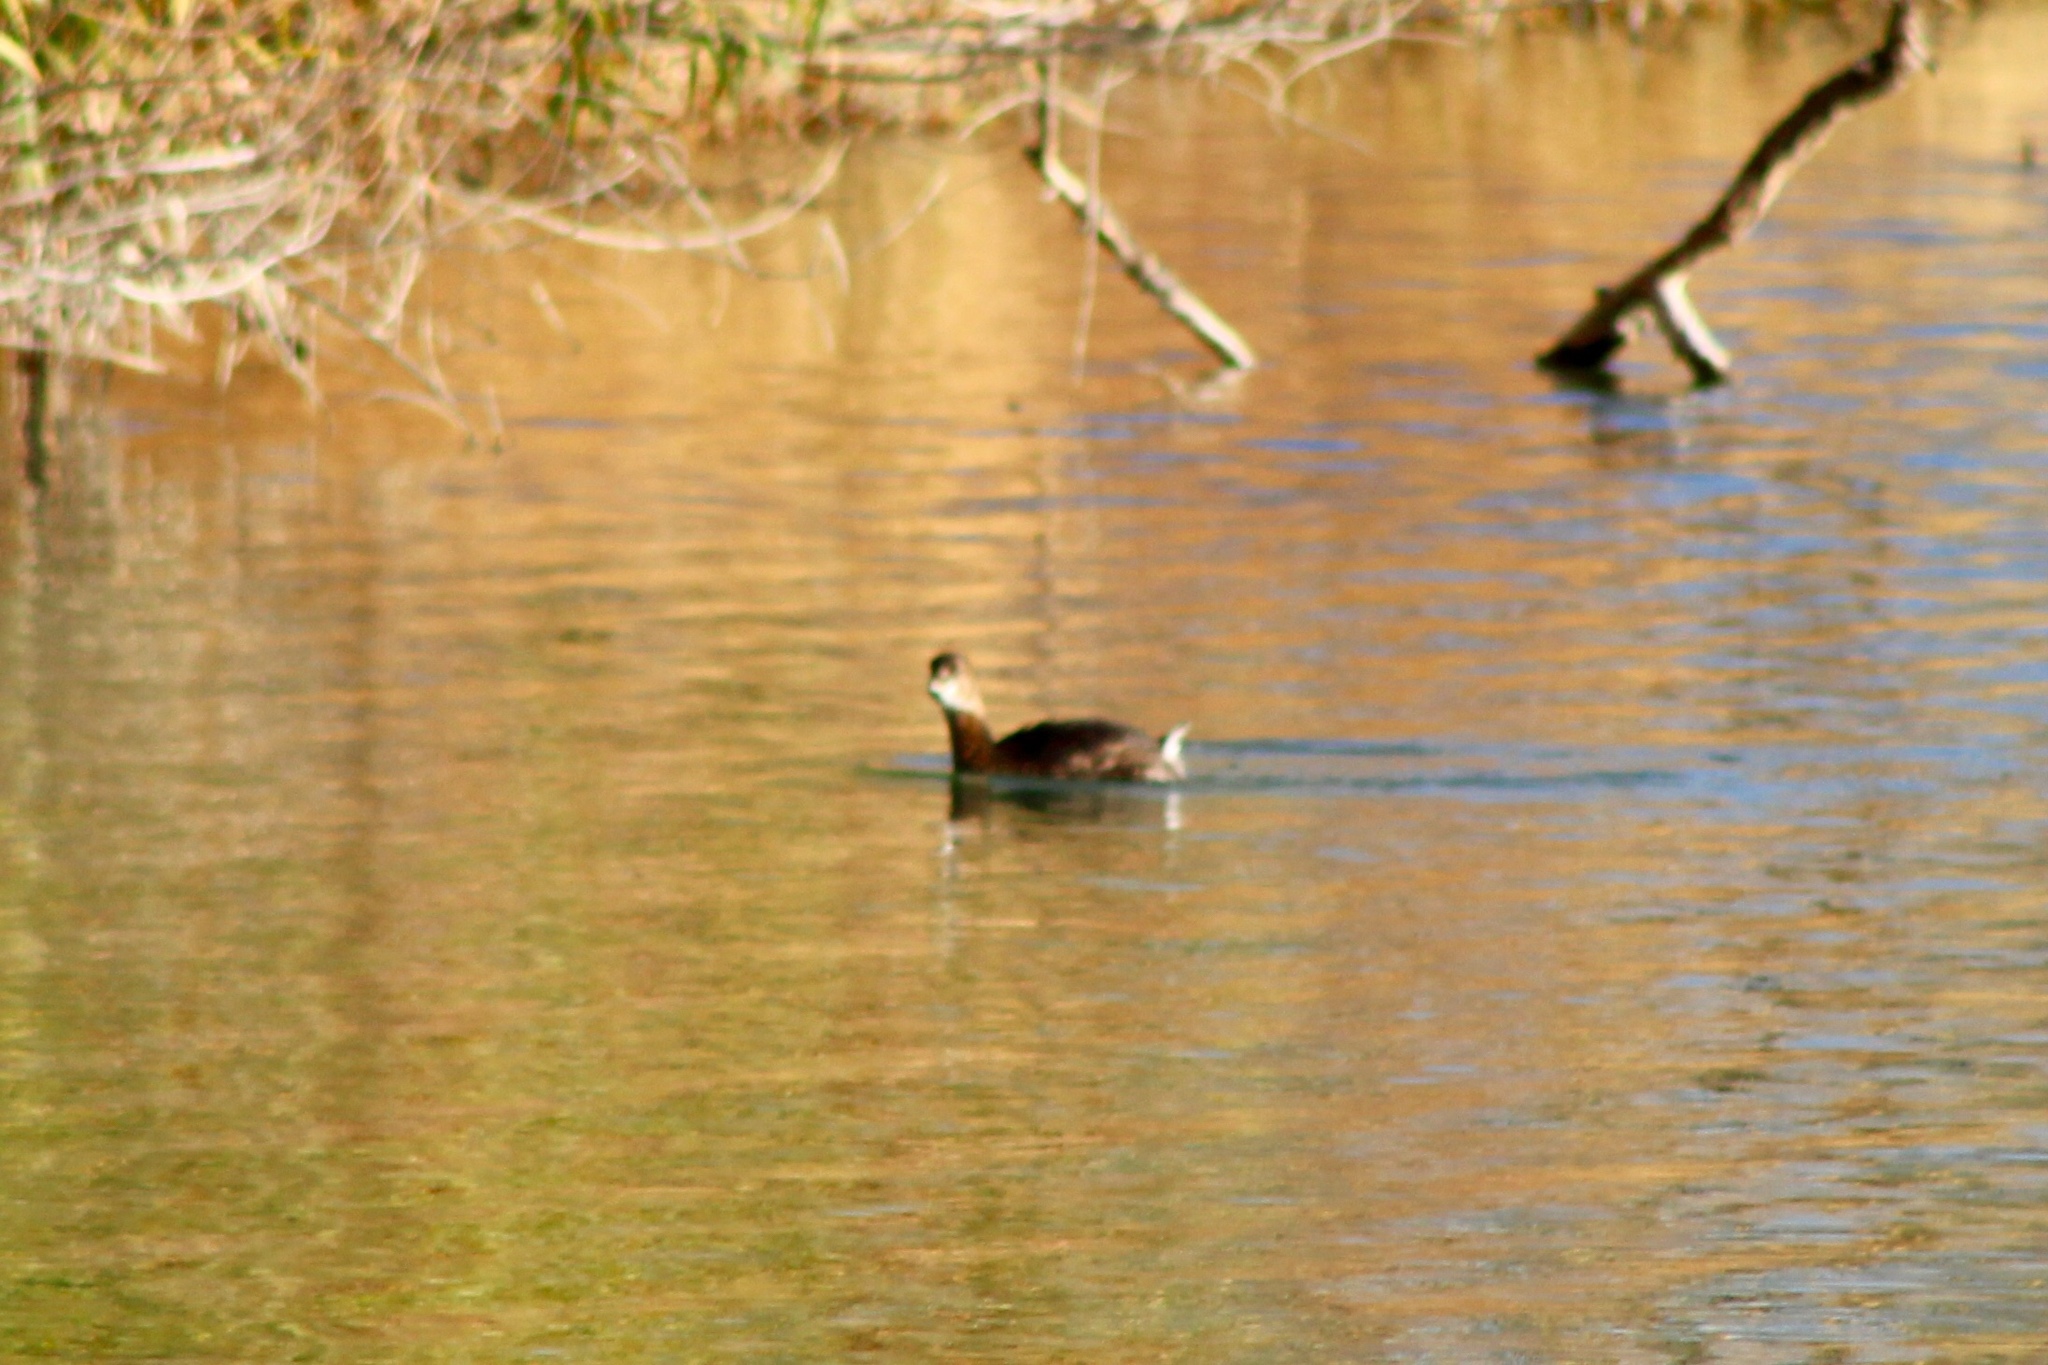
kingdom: Animalia
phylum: Chordata
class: Aves
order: Podicipediformes
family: Podicipedidae
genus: Podilymbus
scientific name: Podilymbus podiceps
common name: Pied-billed grebe
